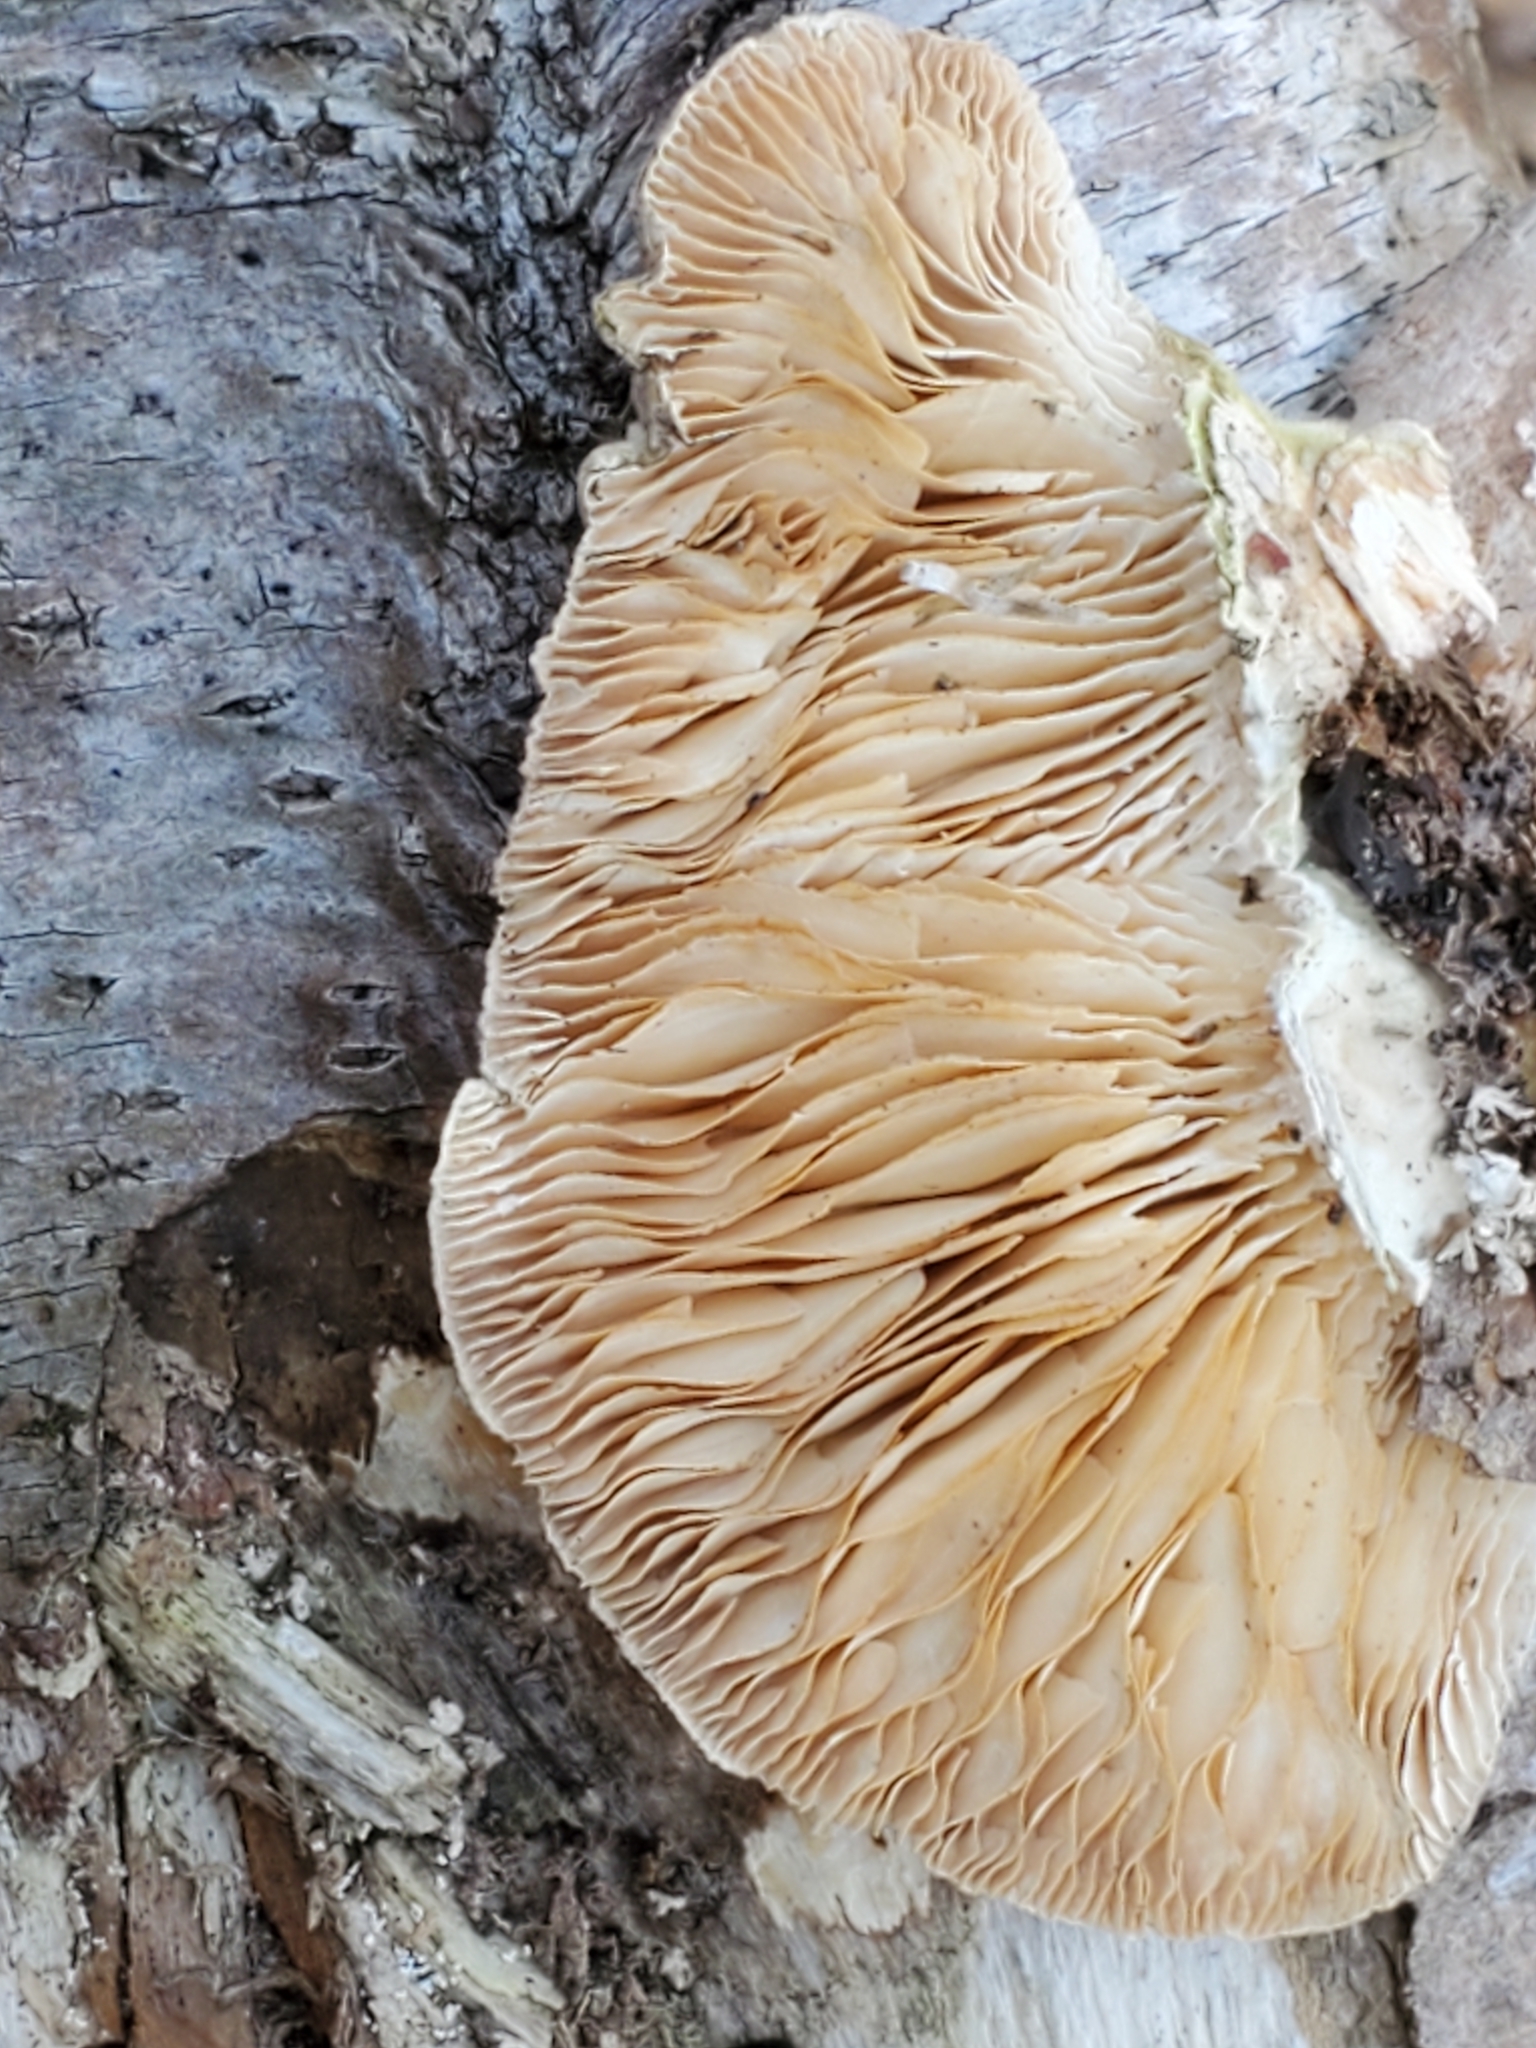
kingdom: Fungi
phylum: Basidiomycota
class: Agaricomycetes
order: Polyporales
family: Polyporaceae
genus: Lenzites
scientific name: Lenzites betulinus
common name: Birch mazegill
